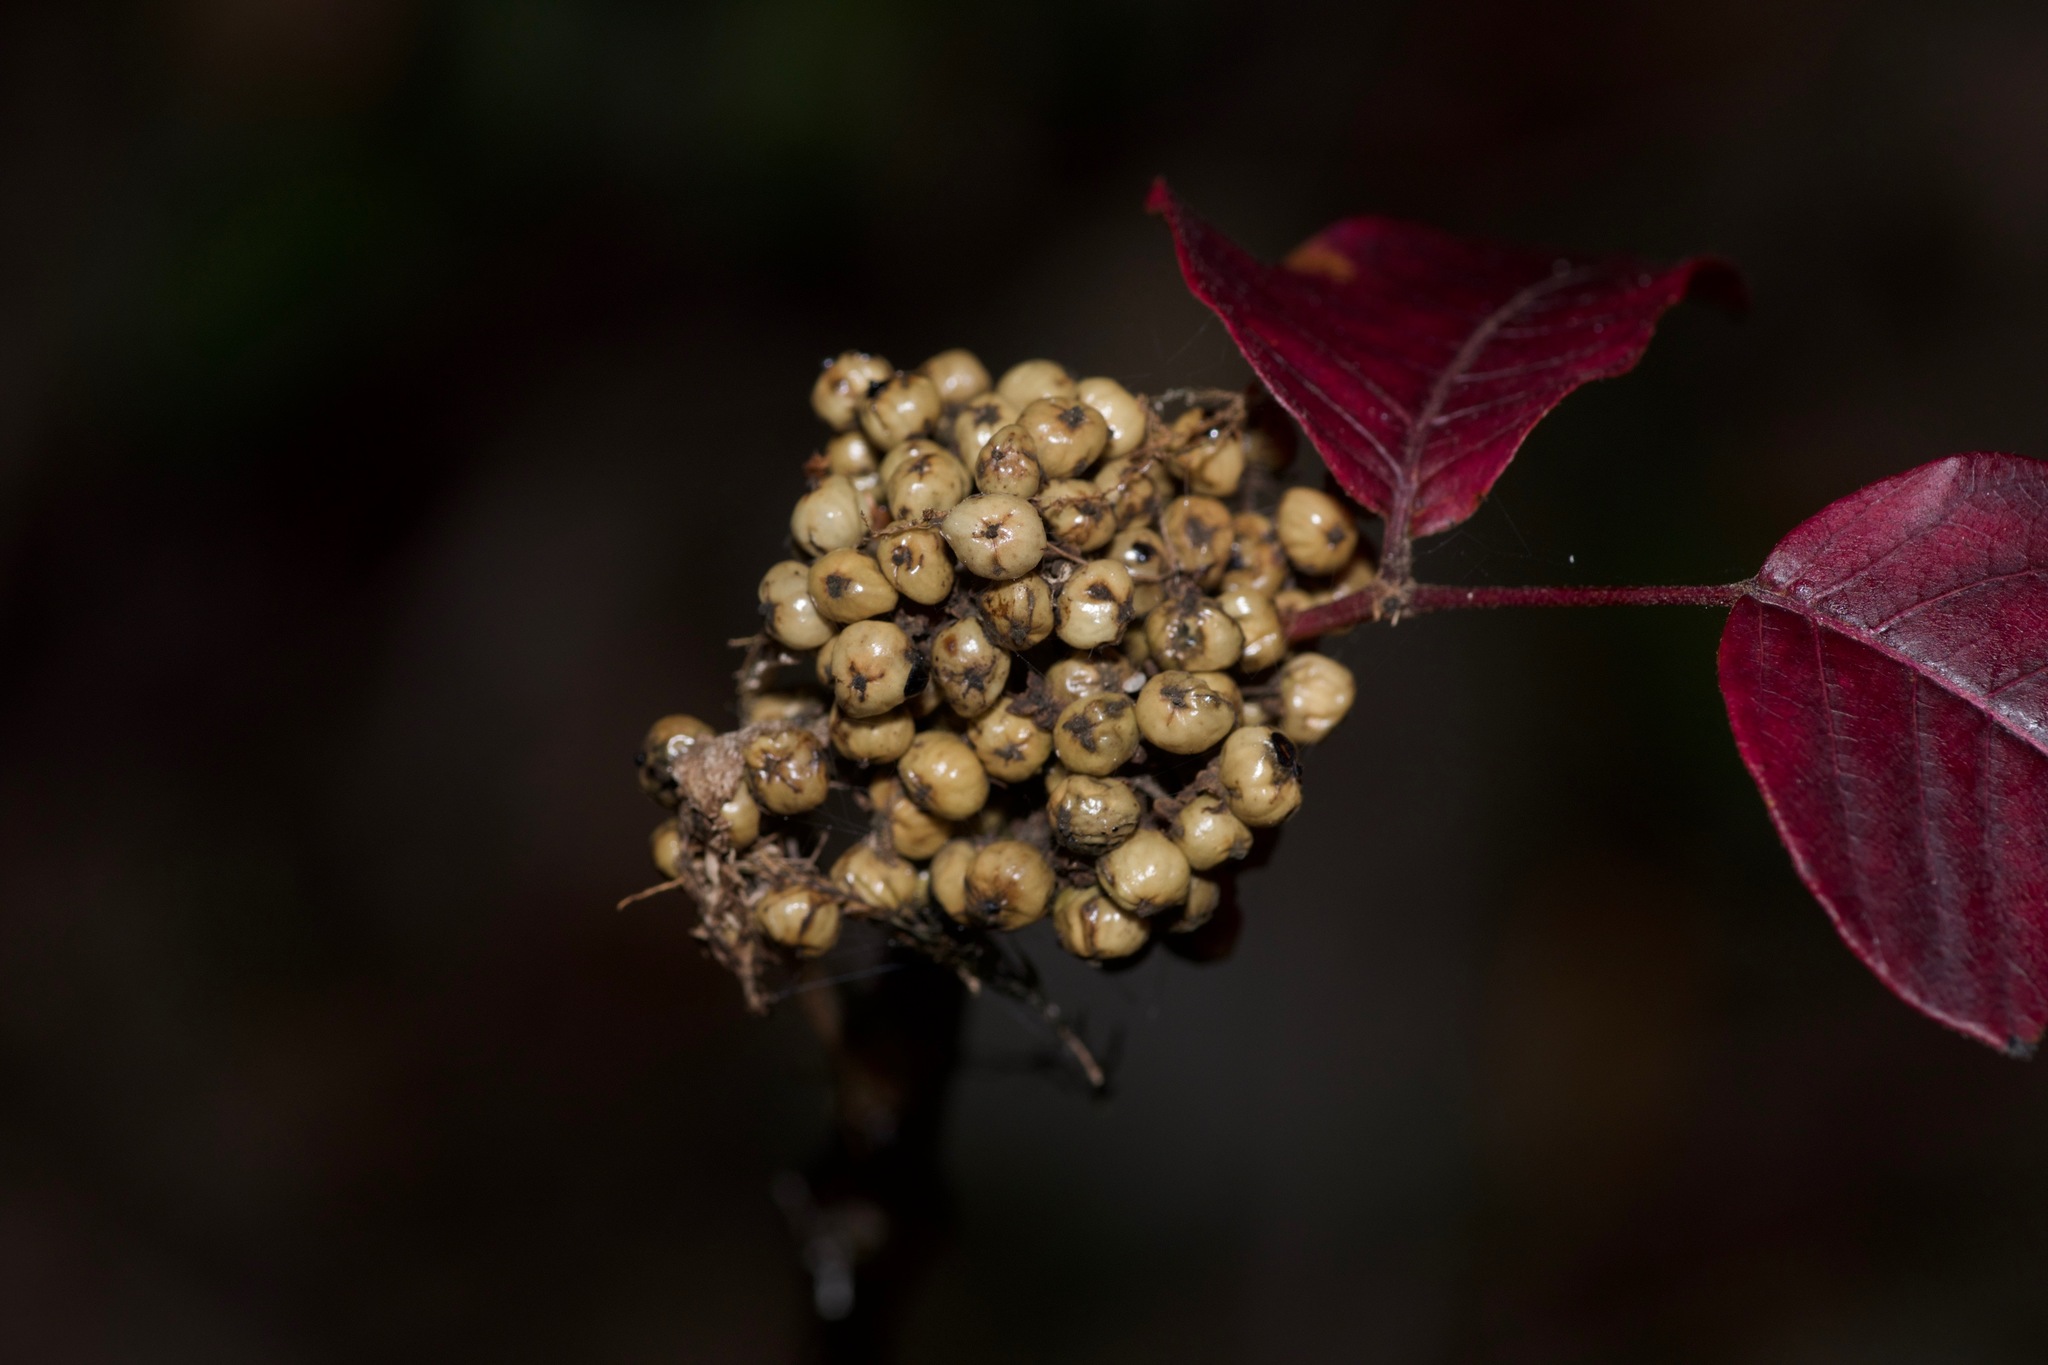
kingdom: Plantae
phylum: Tracheophyta
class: Magnoliopsida
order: Sapindales
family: Anacardiaceae
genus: Toxicodendron
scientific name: Toxicodendron radicans
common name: Poison ivy
